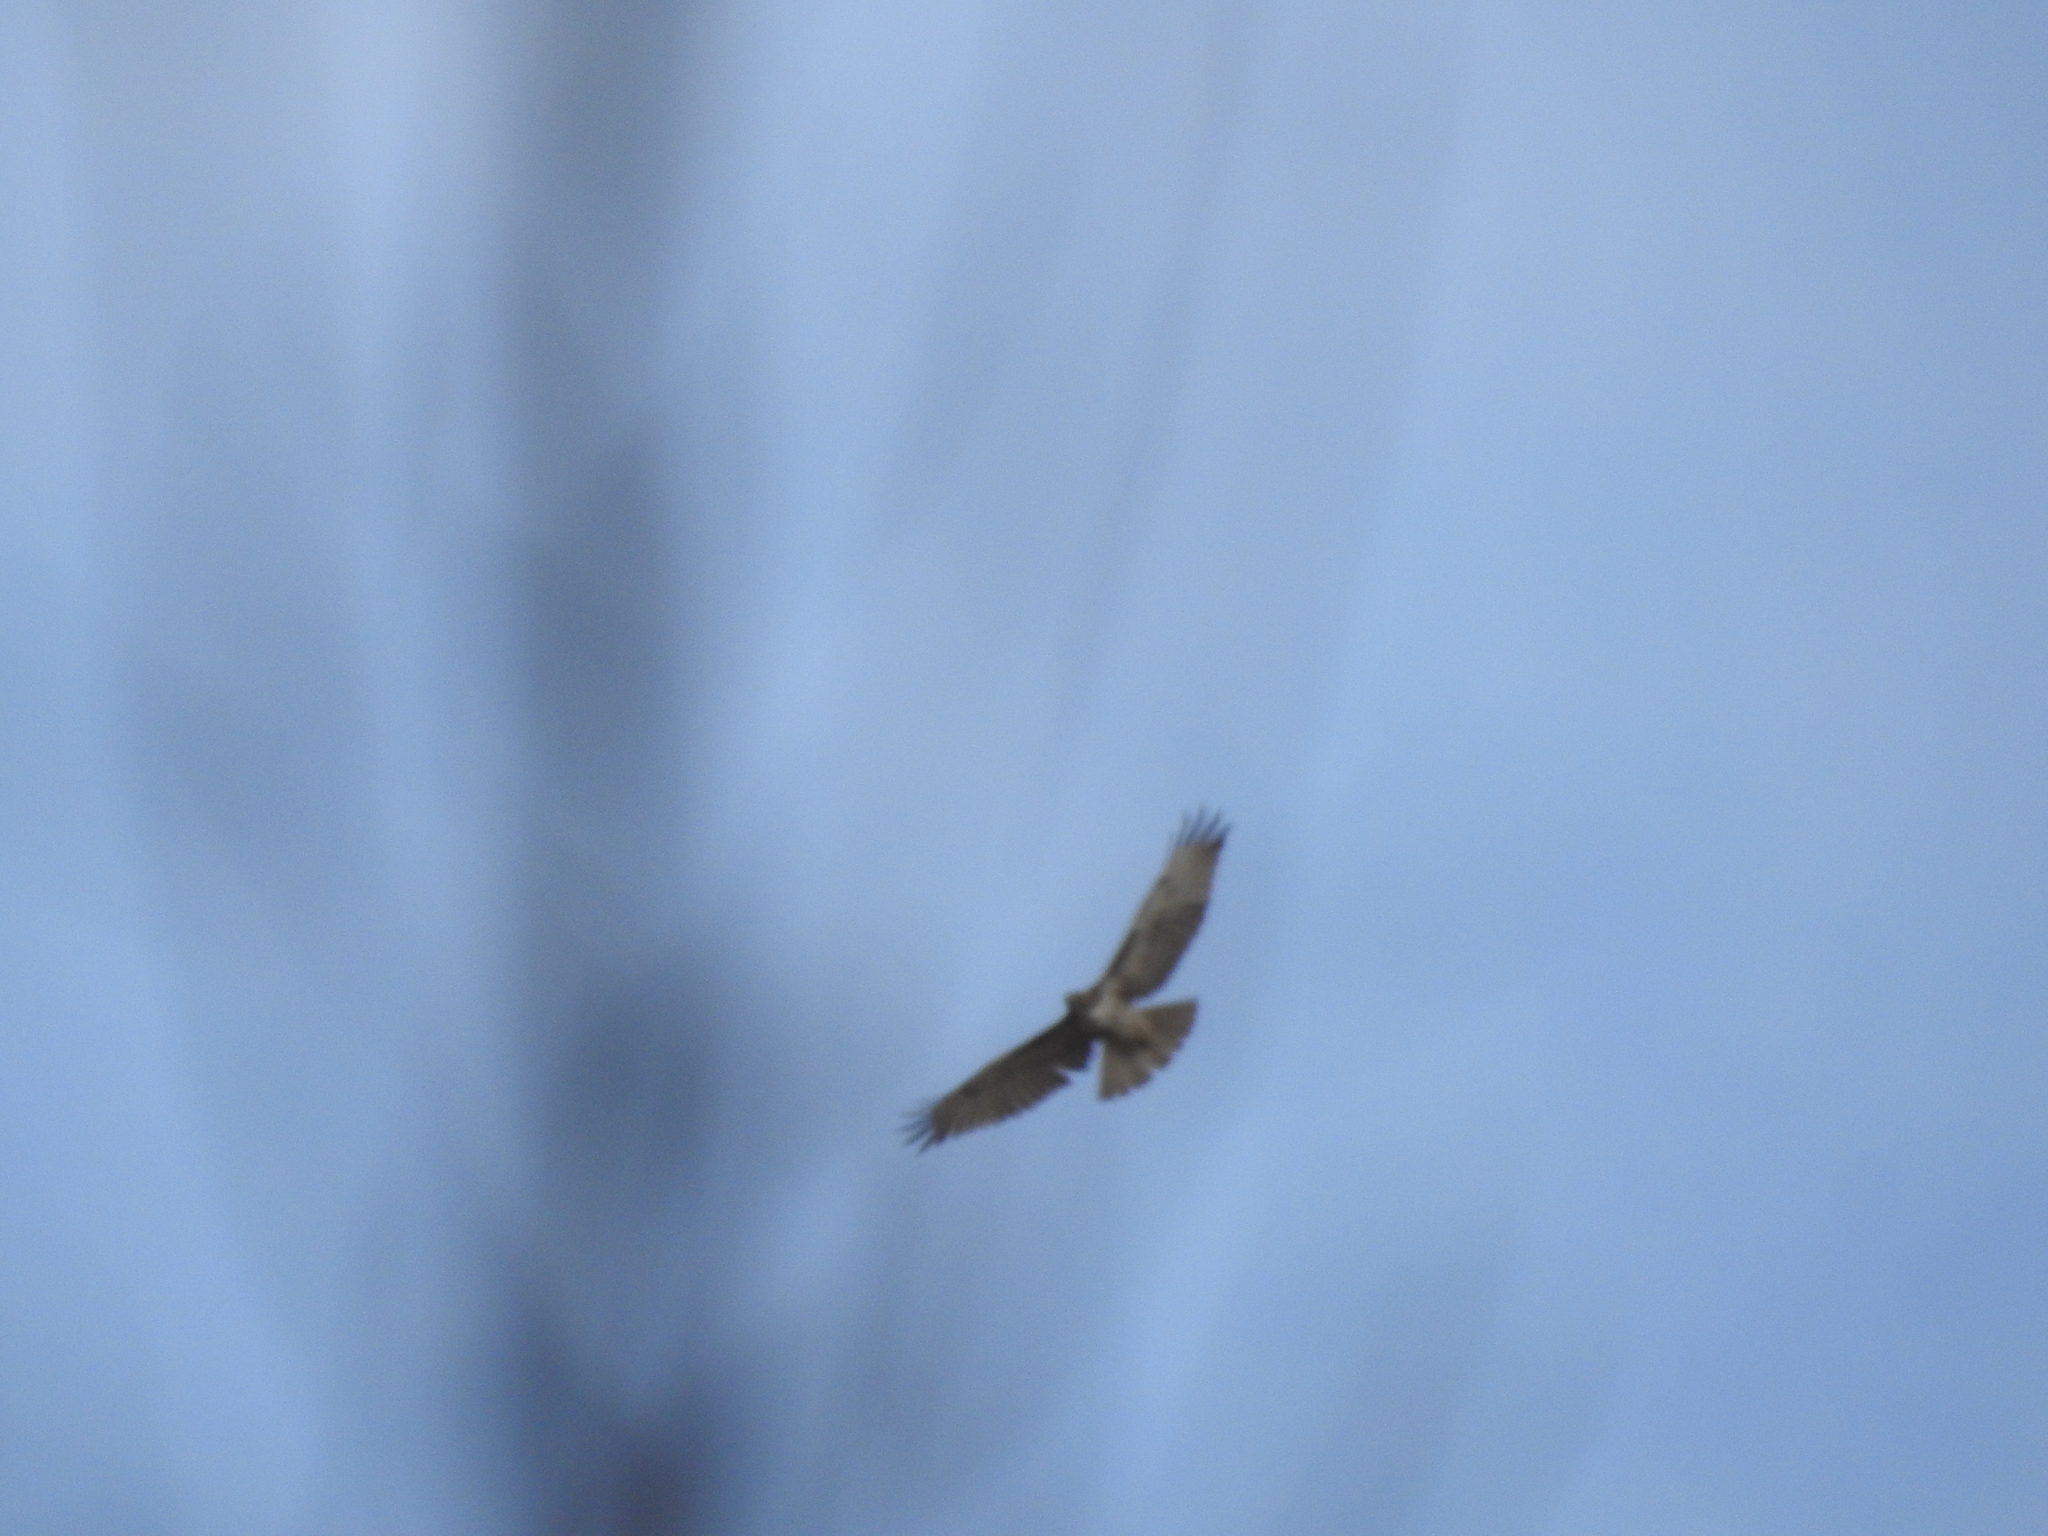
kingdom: Animalia
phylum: Chordata
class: Aves
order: Accipitriformes
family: Accipitridae
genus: Buteo
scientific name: Buteo jamaicensis
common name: Red-tailed hawk
